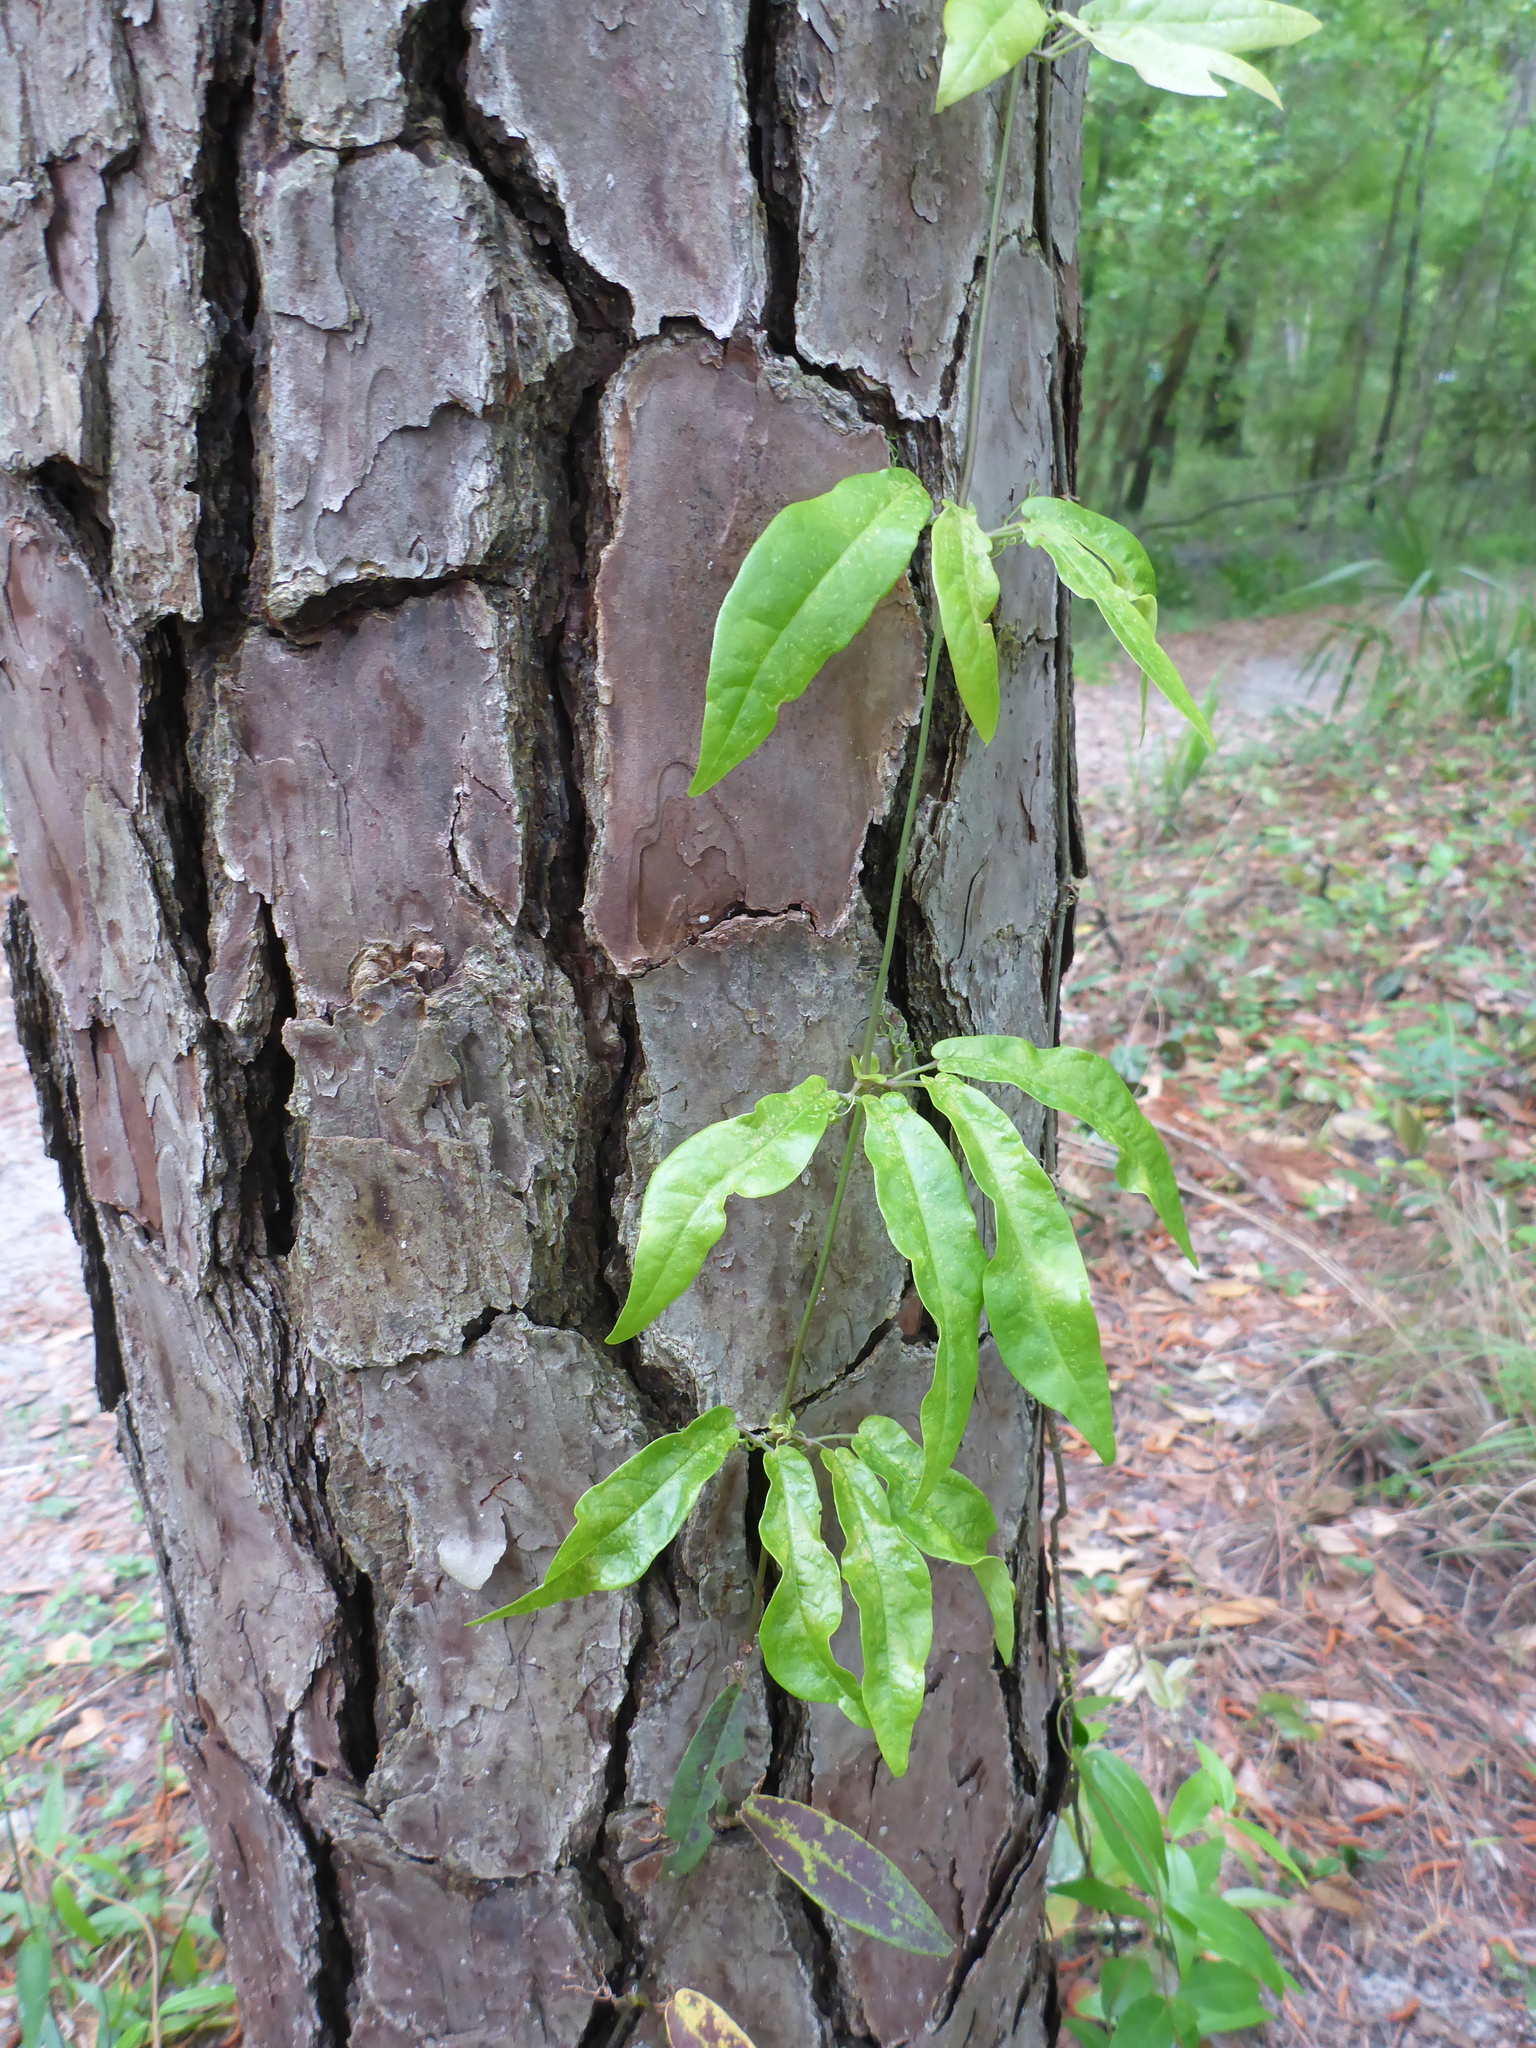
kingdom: Plantae
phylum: Tracheophyta
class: Magnoliopsida
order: Lamiales
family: Bignoniaceae
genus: Bignonia
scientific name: Bignonia capreolata
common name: Crossvine
